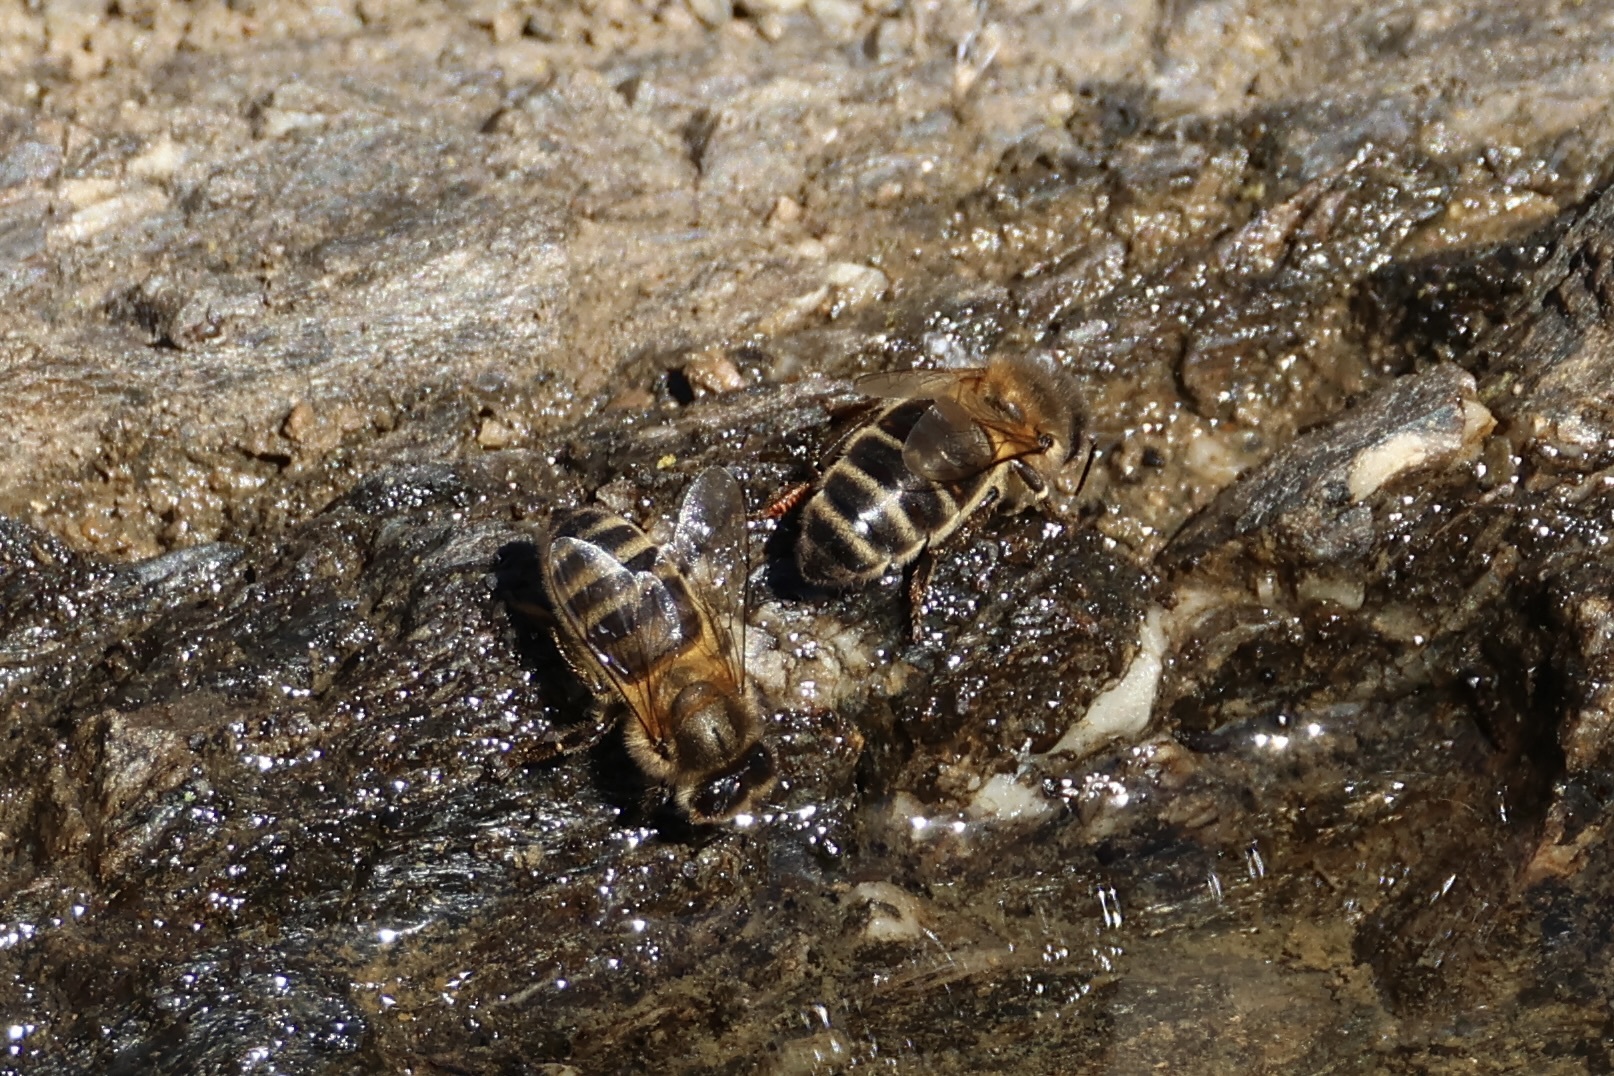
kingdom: Animalia
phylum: Arthropoda
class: Insecta
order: Hymenoptera
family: Apidae
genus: Apis
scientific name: Apis mellifera
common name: Honey bee
